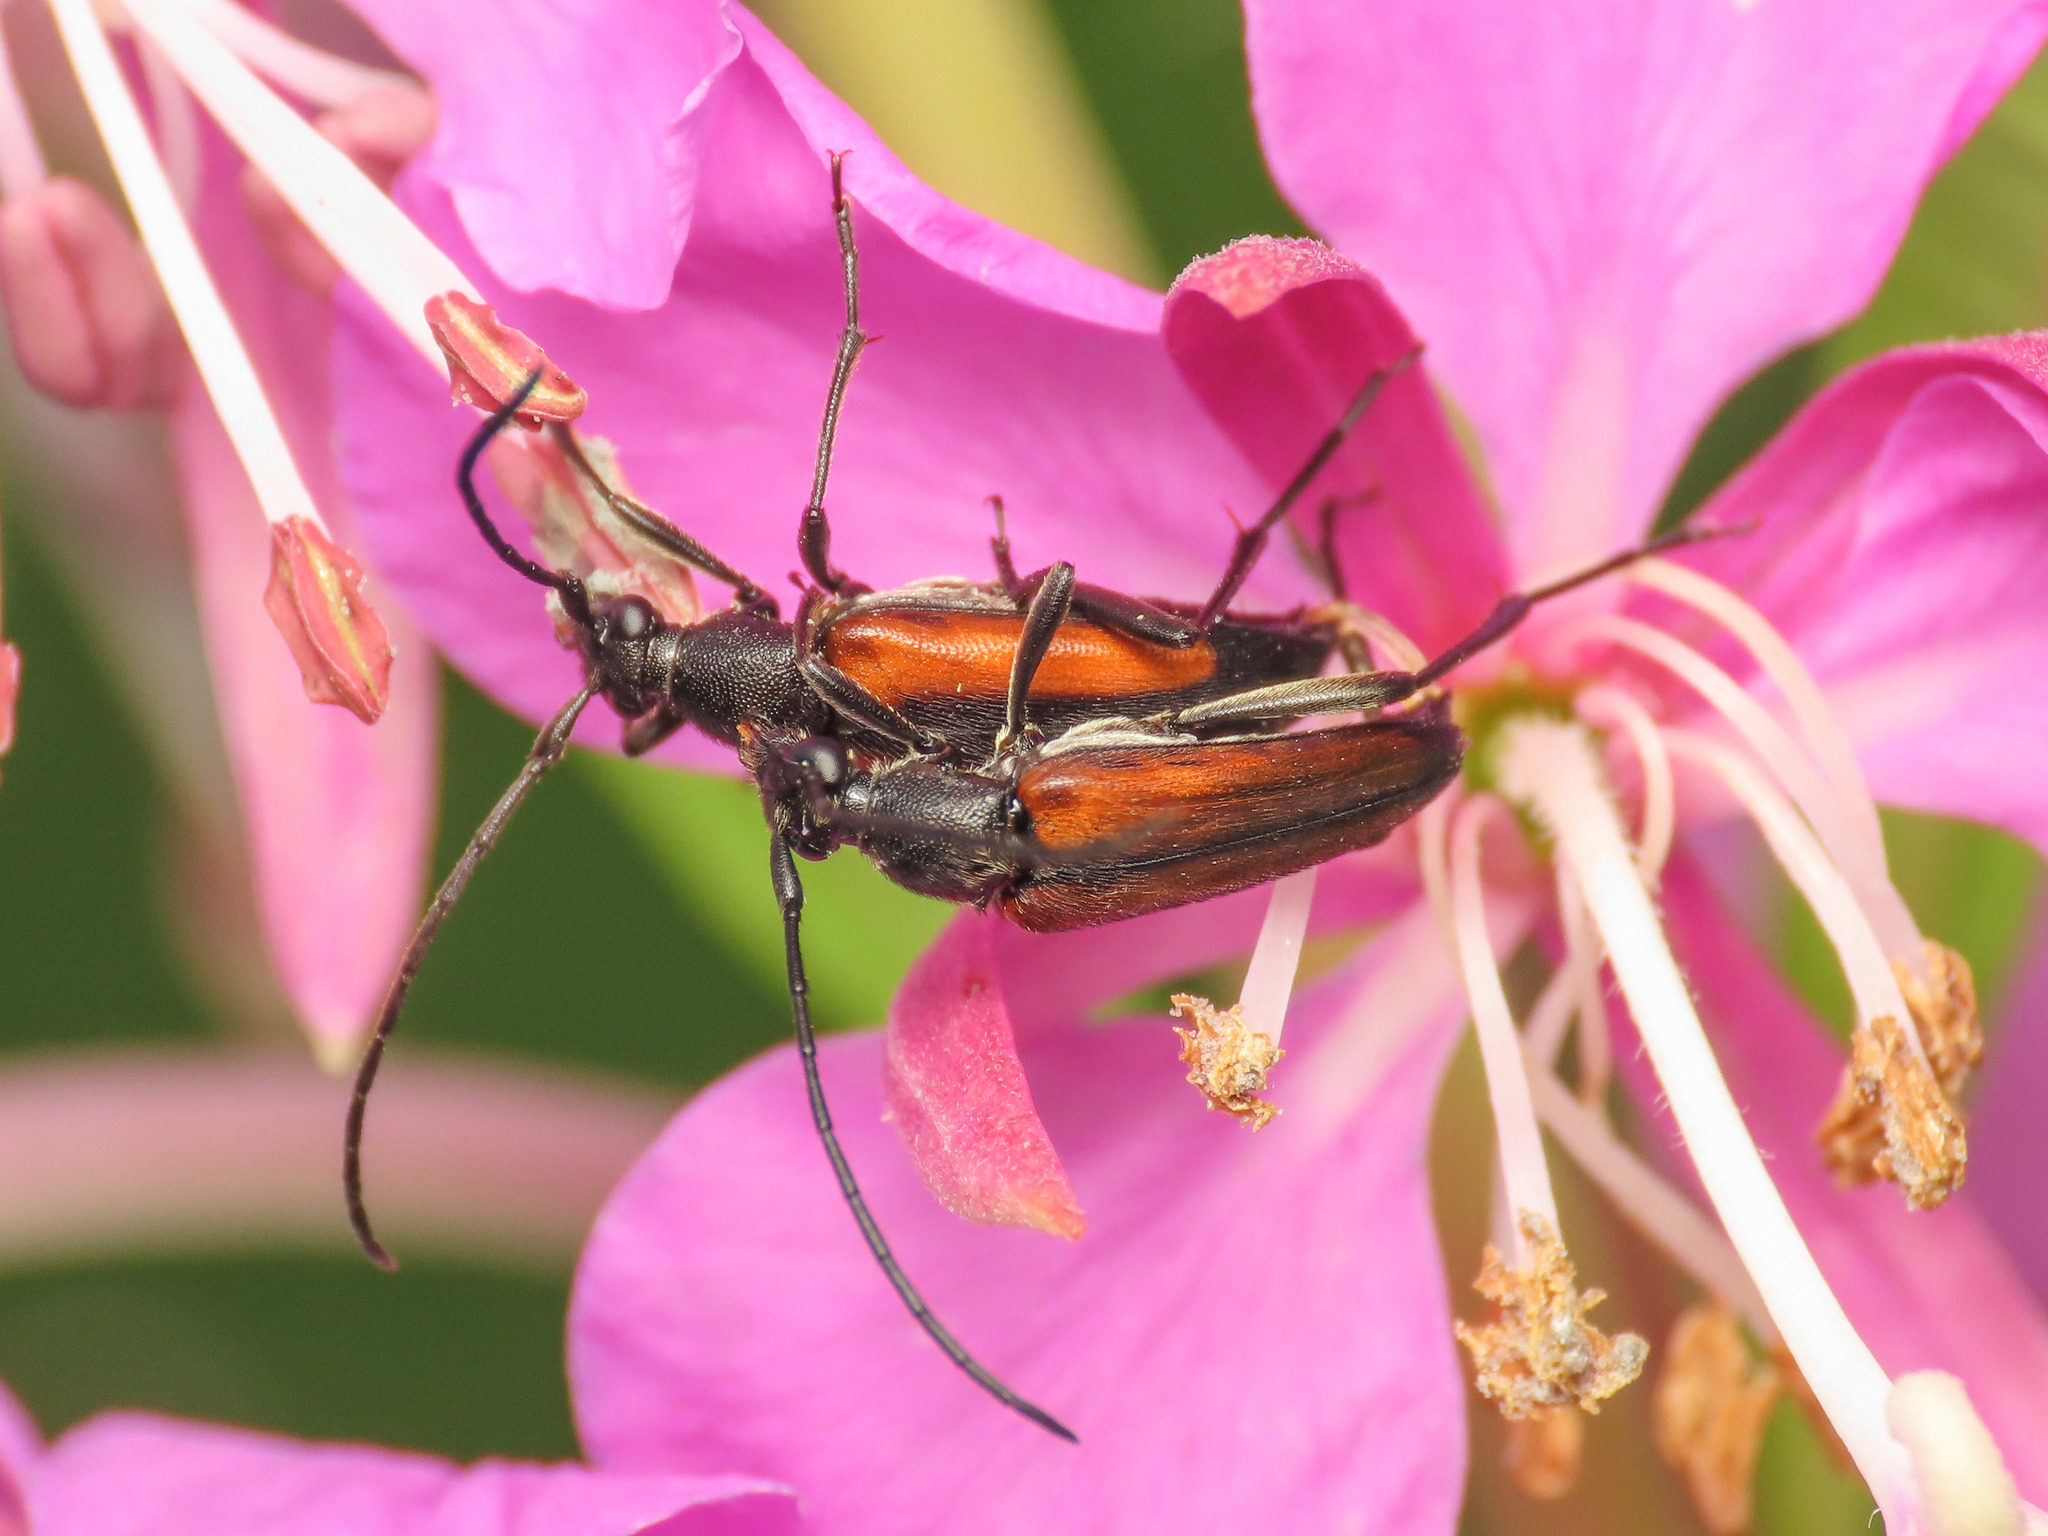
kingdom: Animalia
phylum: Arthropoda
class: Insecta
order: Coleoptera
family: Cerambycidae
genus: Stenurella
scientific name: Stenurella melanura
